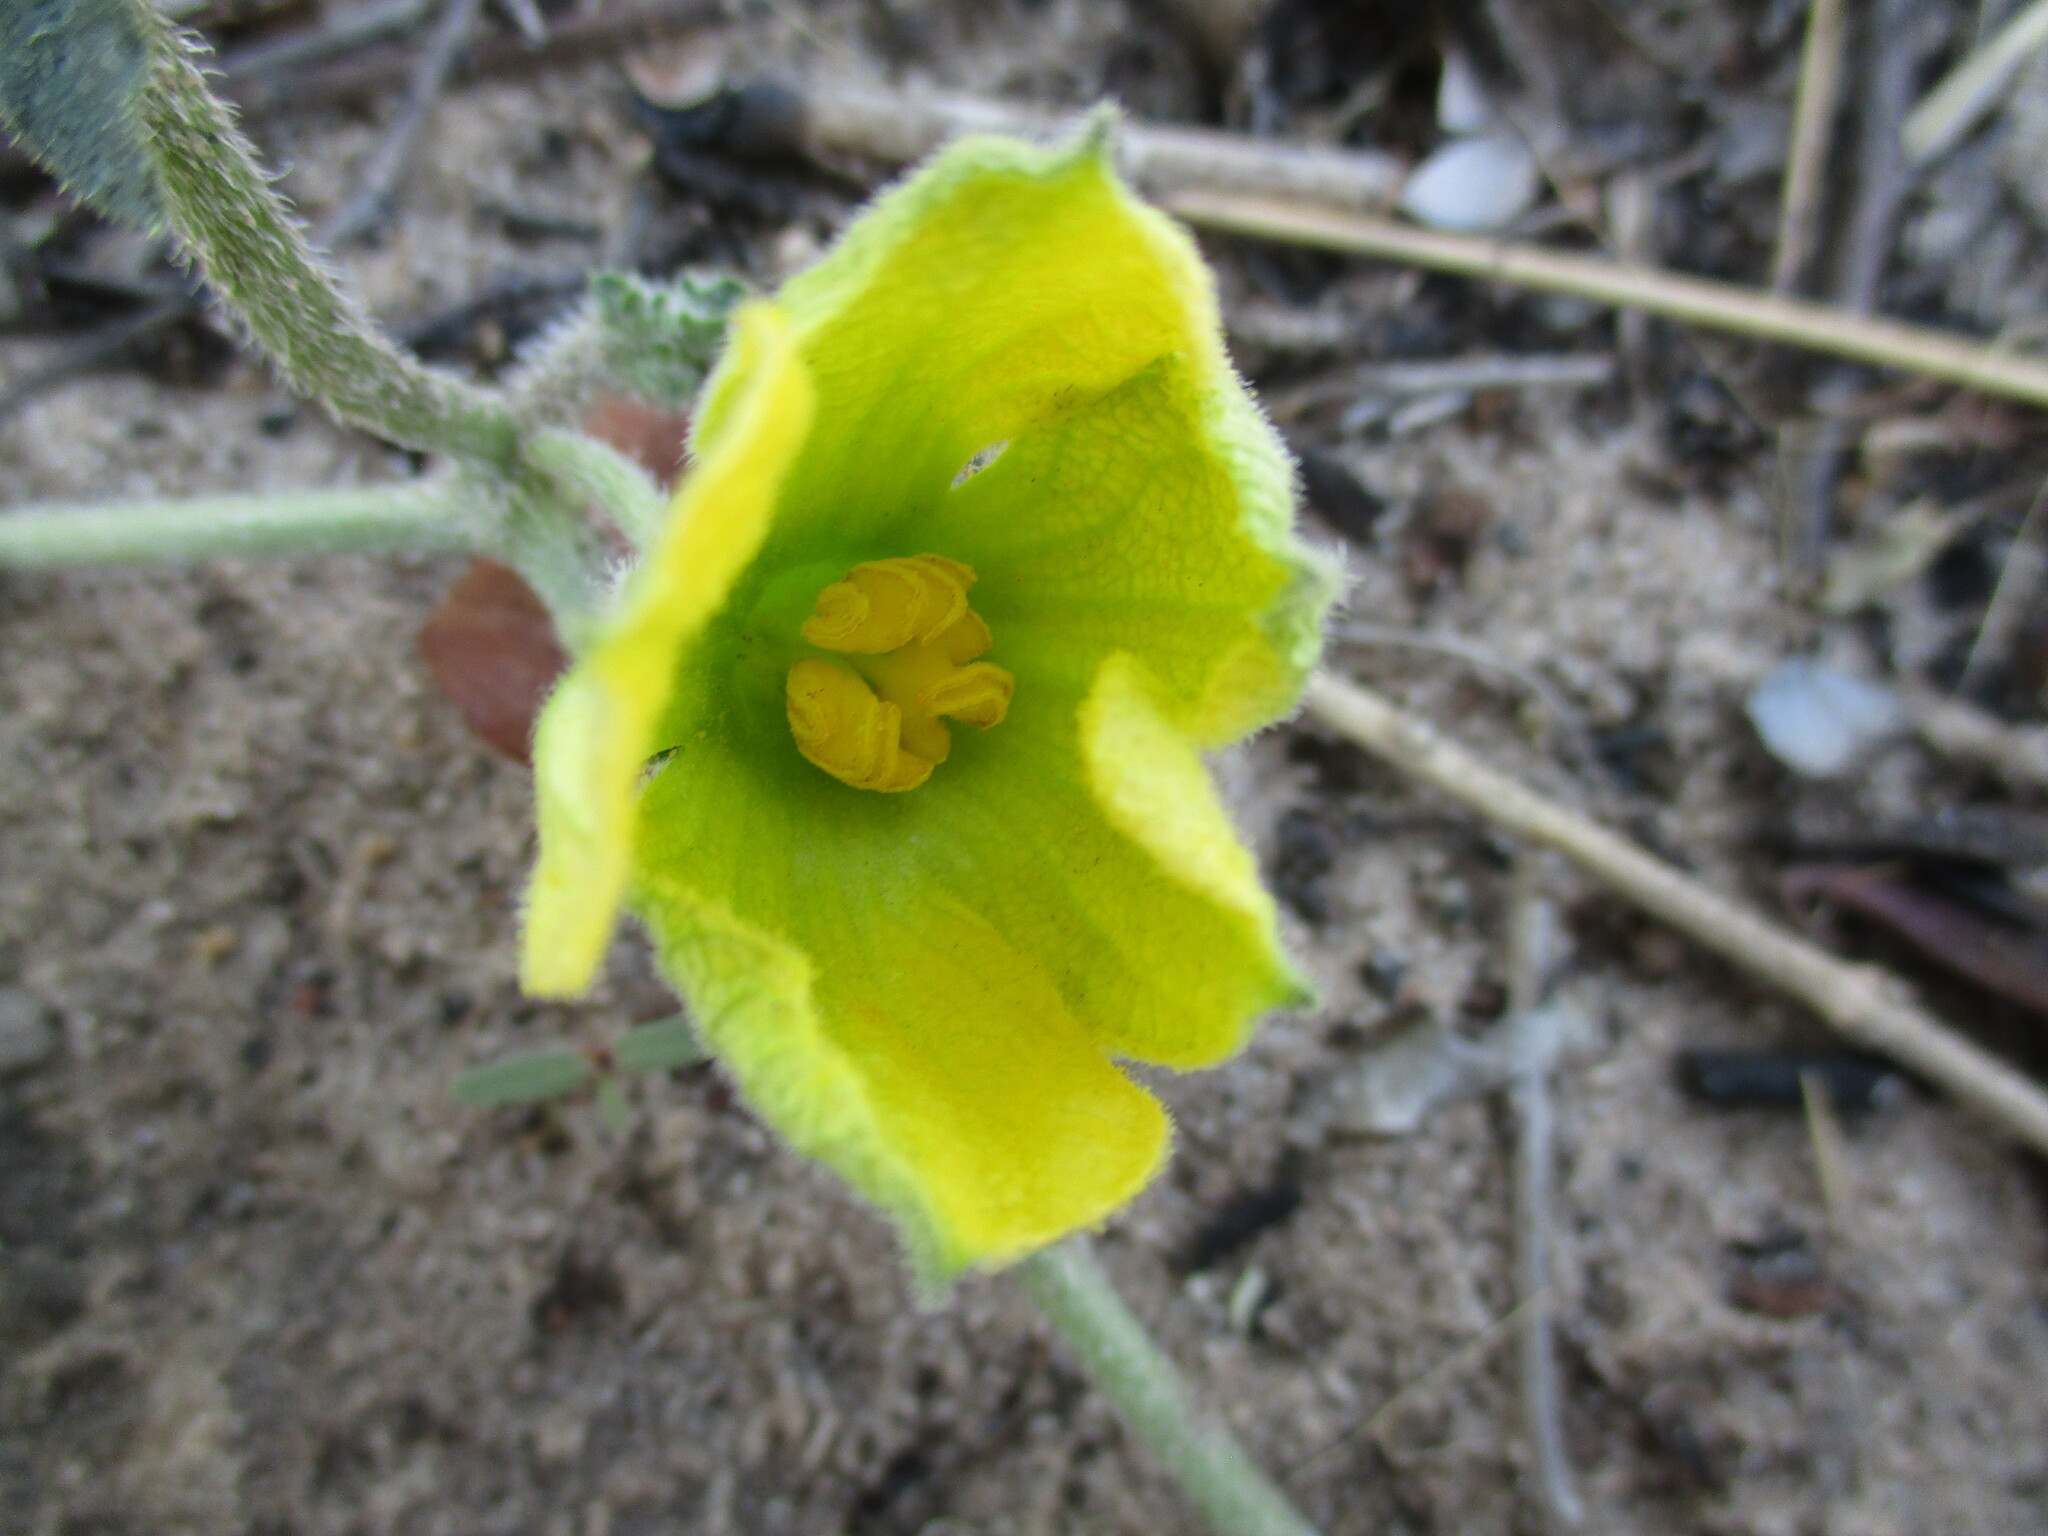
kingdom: Plantae
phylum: Tracheophyta
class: Magnoliopsida
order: Cucurbitales
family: Cucurbitaceae
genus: Citrullus
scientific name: Citrullus naudinianus
